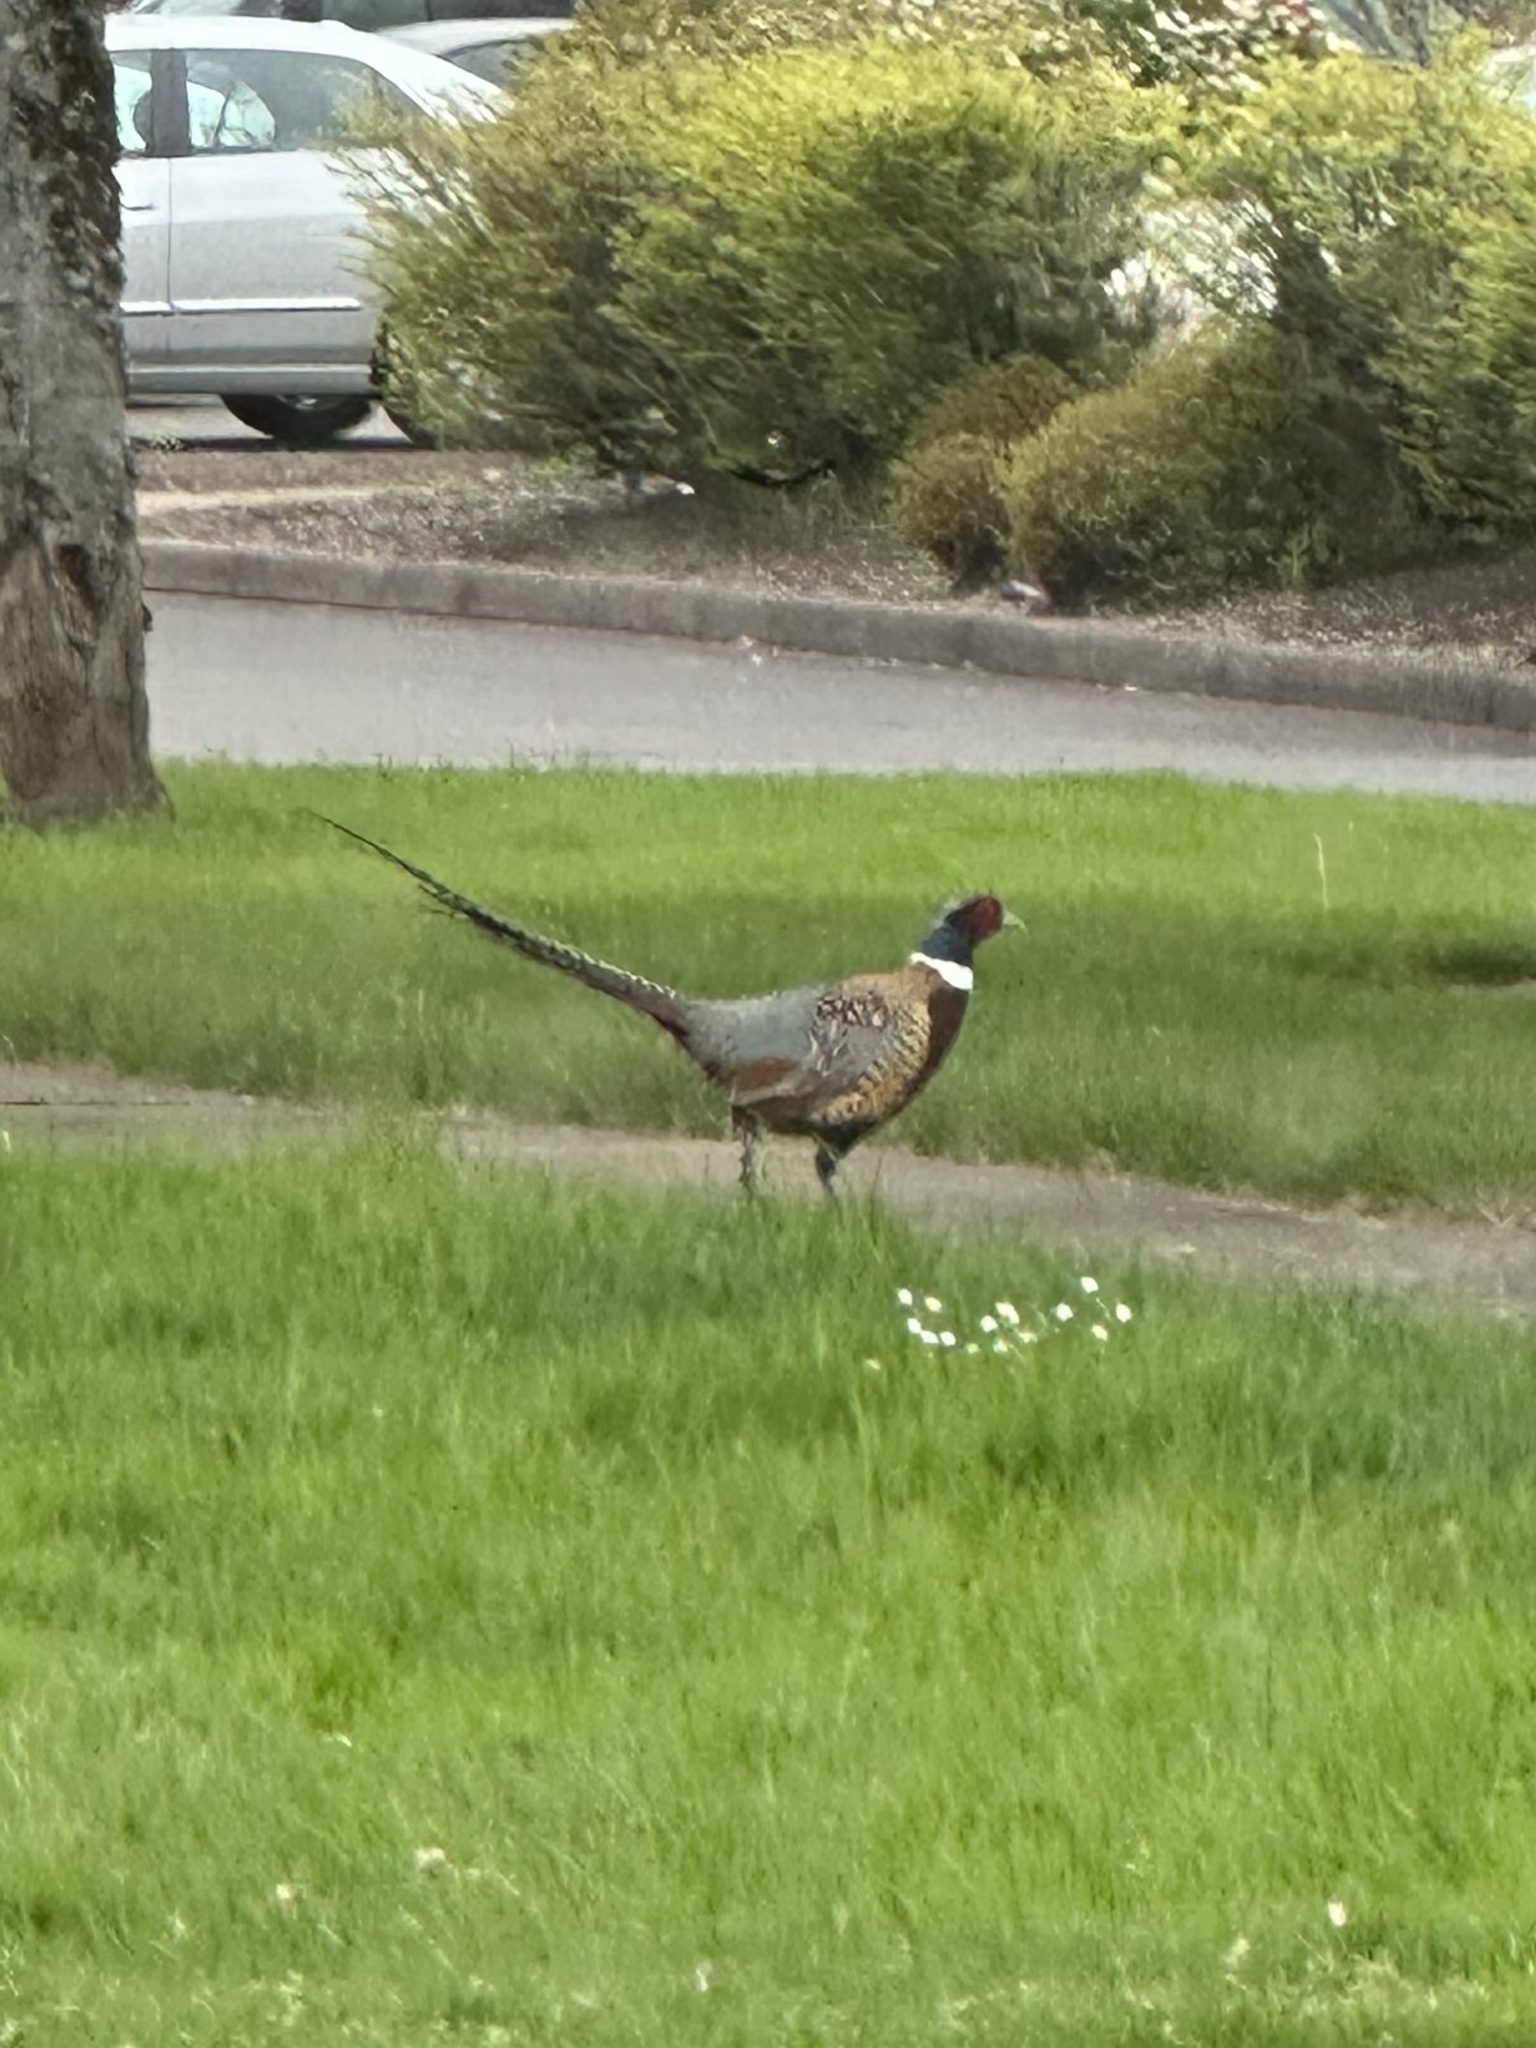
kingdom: Animalia
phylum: Chordata
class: Aves
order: Galliformes
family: Phasianidae
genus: Phasianus
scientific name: Phasianus colchicus
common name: Common pheasant
